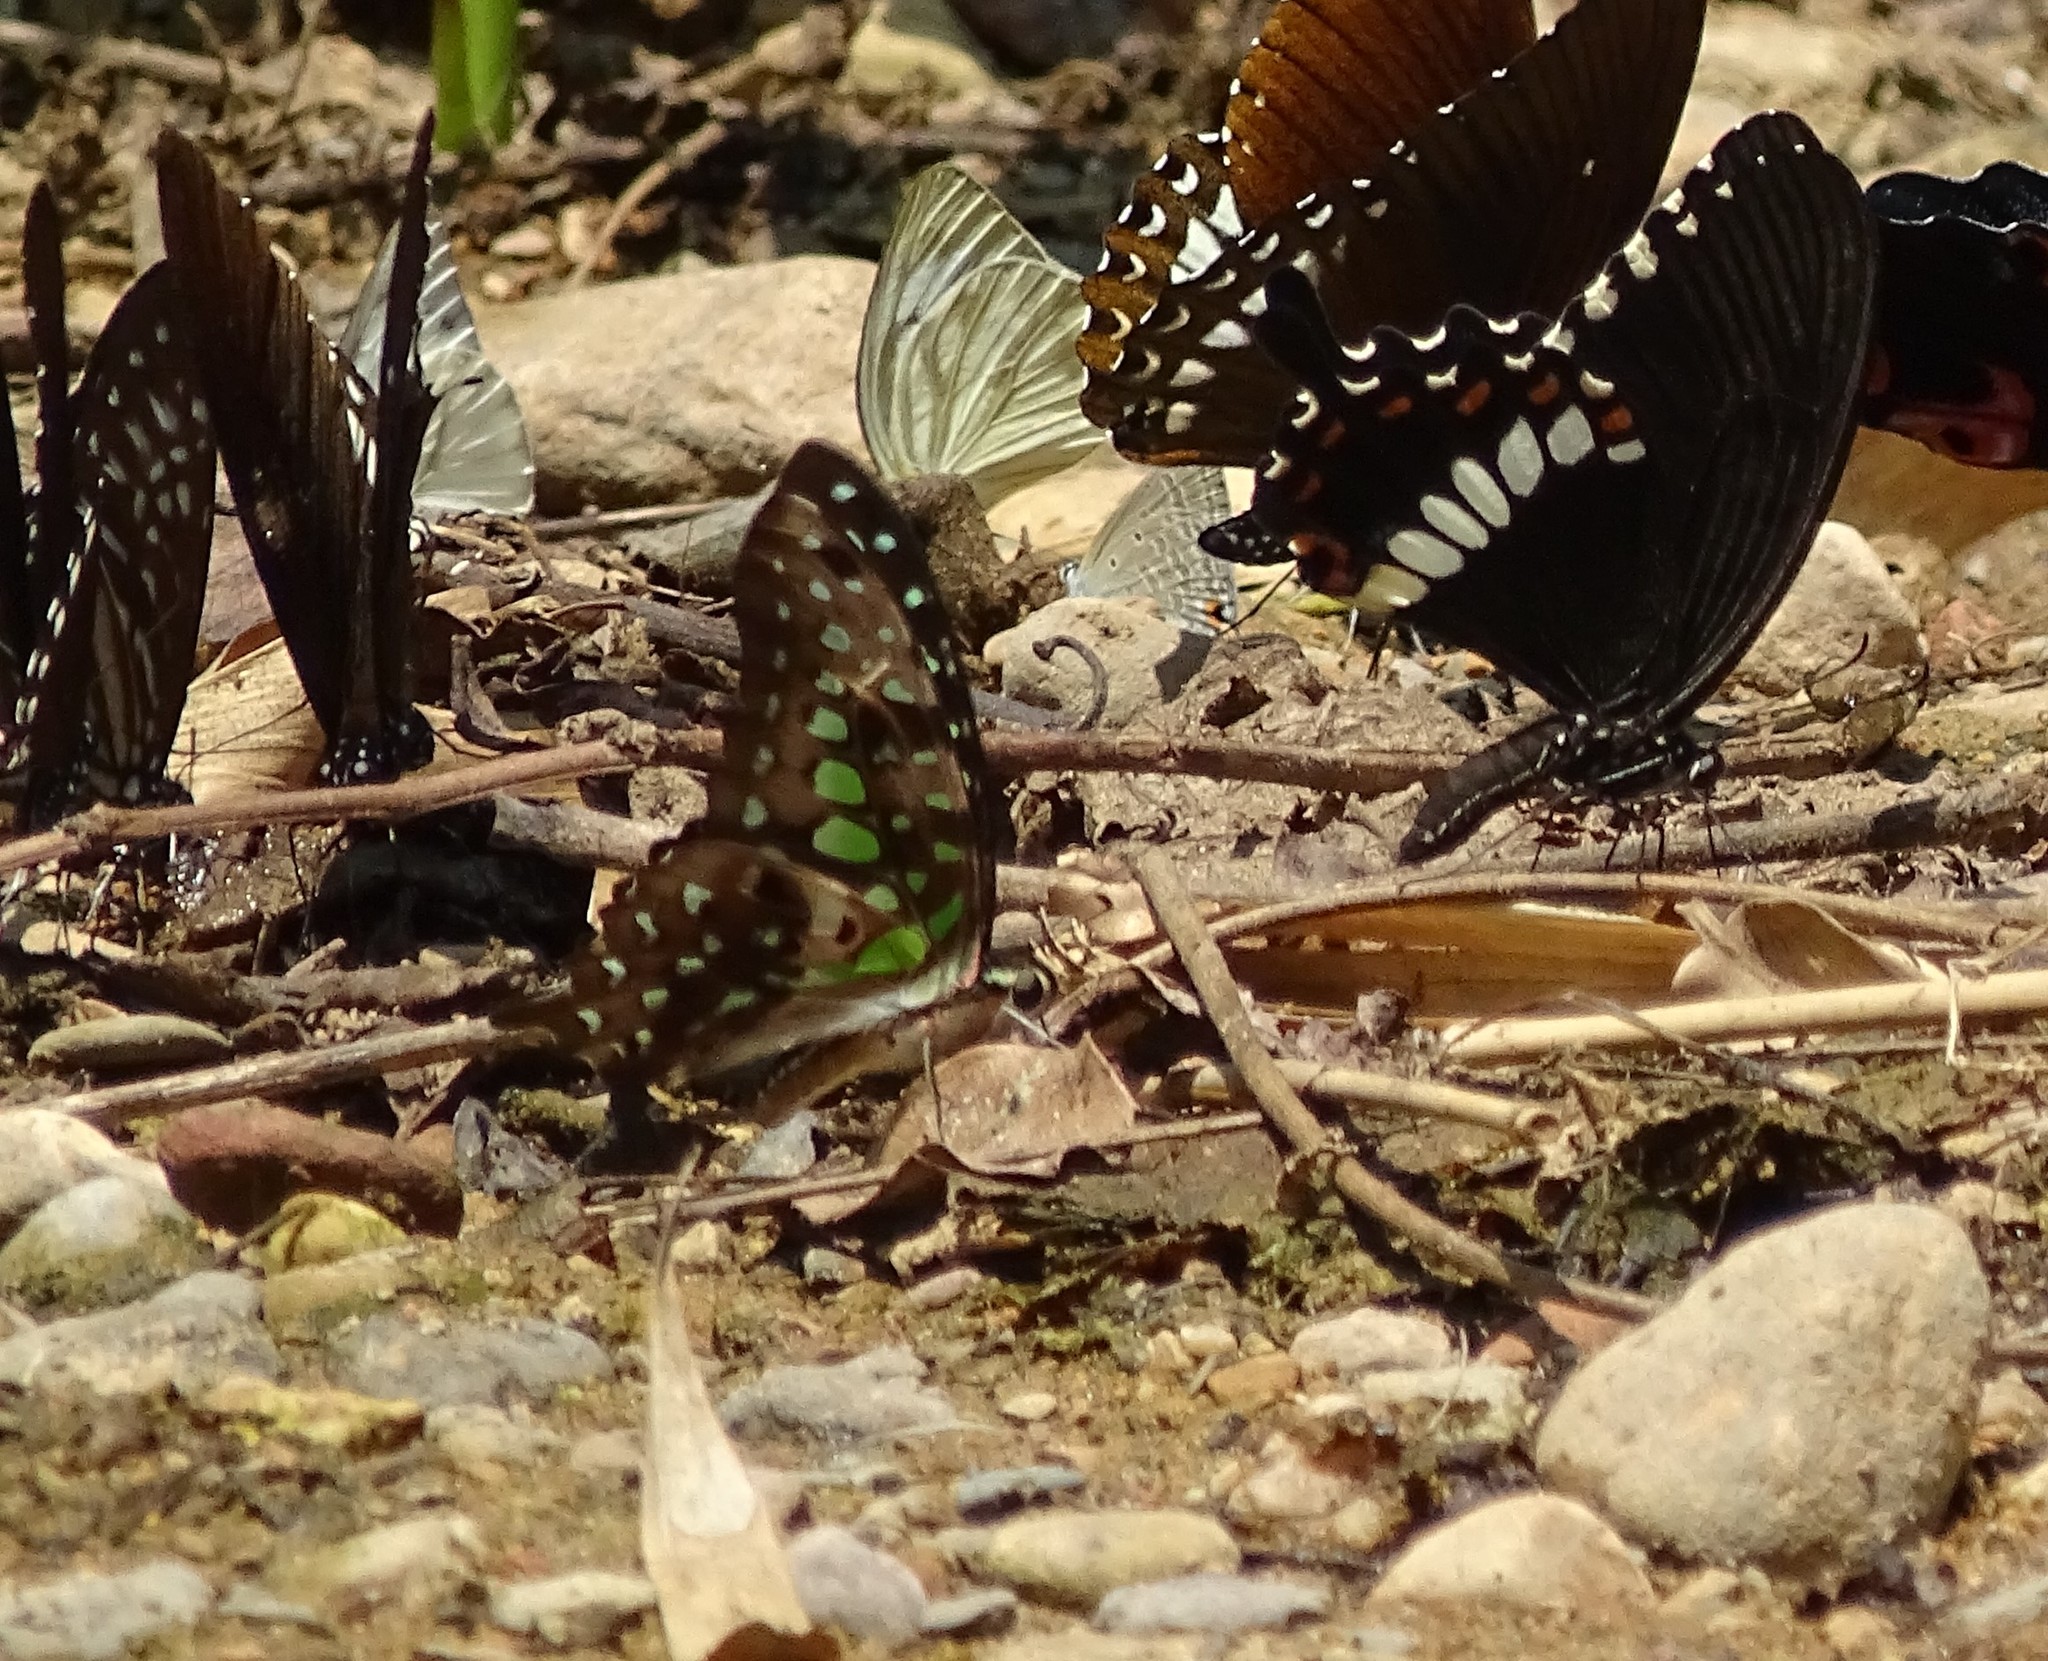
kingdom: Animalia
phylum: Arthropoda
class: Insecta
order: Lepidoptera
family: Papilionidae
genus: Graphium
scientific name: Graphium agamemnon
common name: Tailed jay
